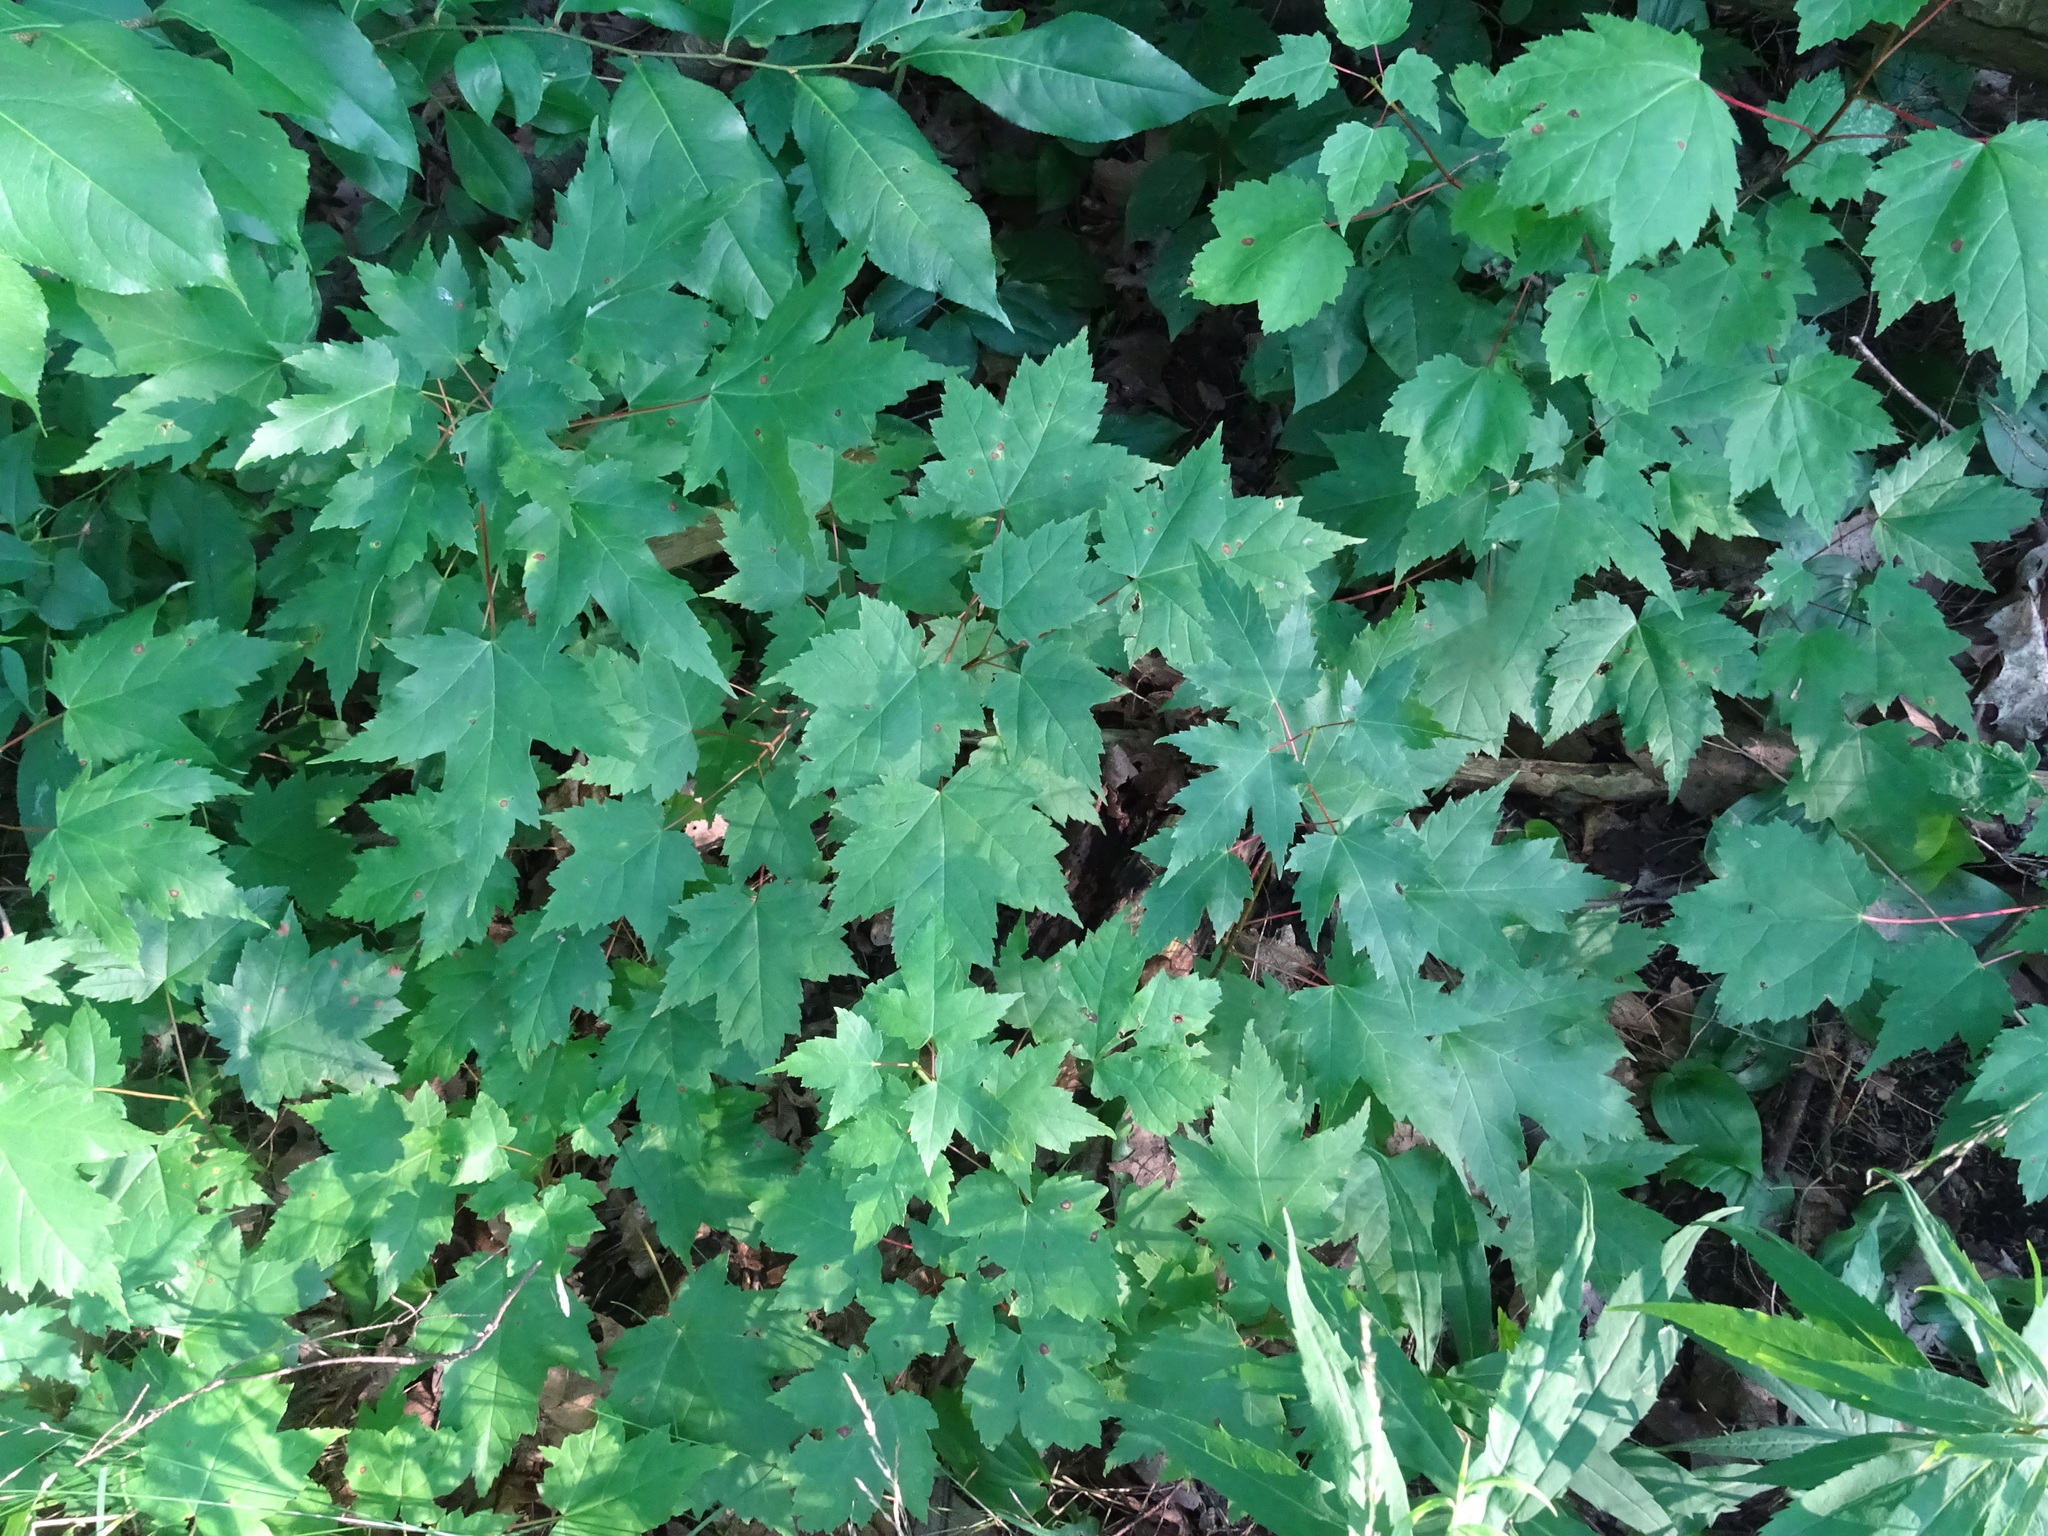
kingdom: Plantae
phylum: Tracheophyta
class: Magnoliopsida
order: Sapindales
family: Sapindaceae
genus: Acer
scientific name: Acer rubrum
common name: Red maple
